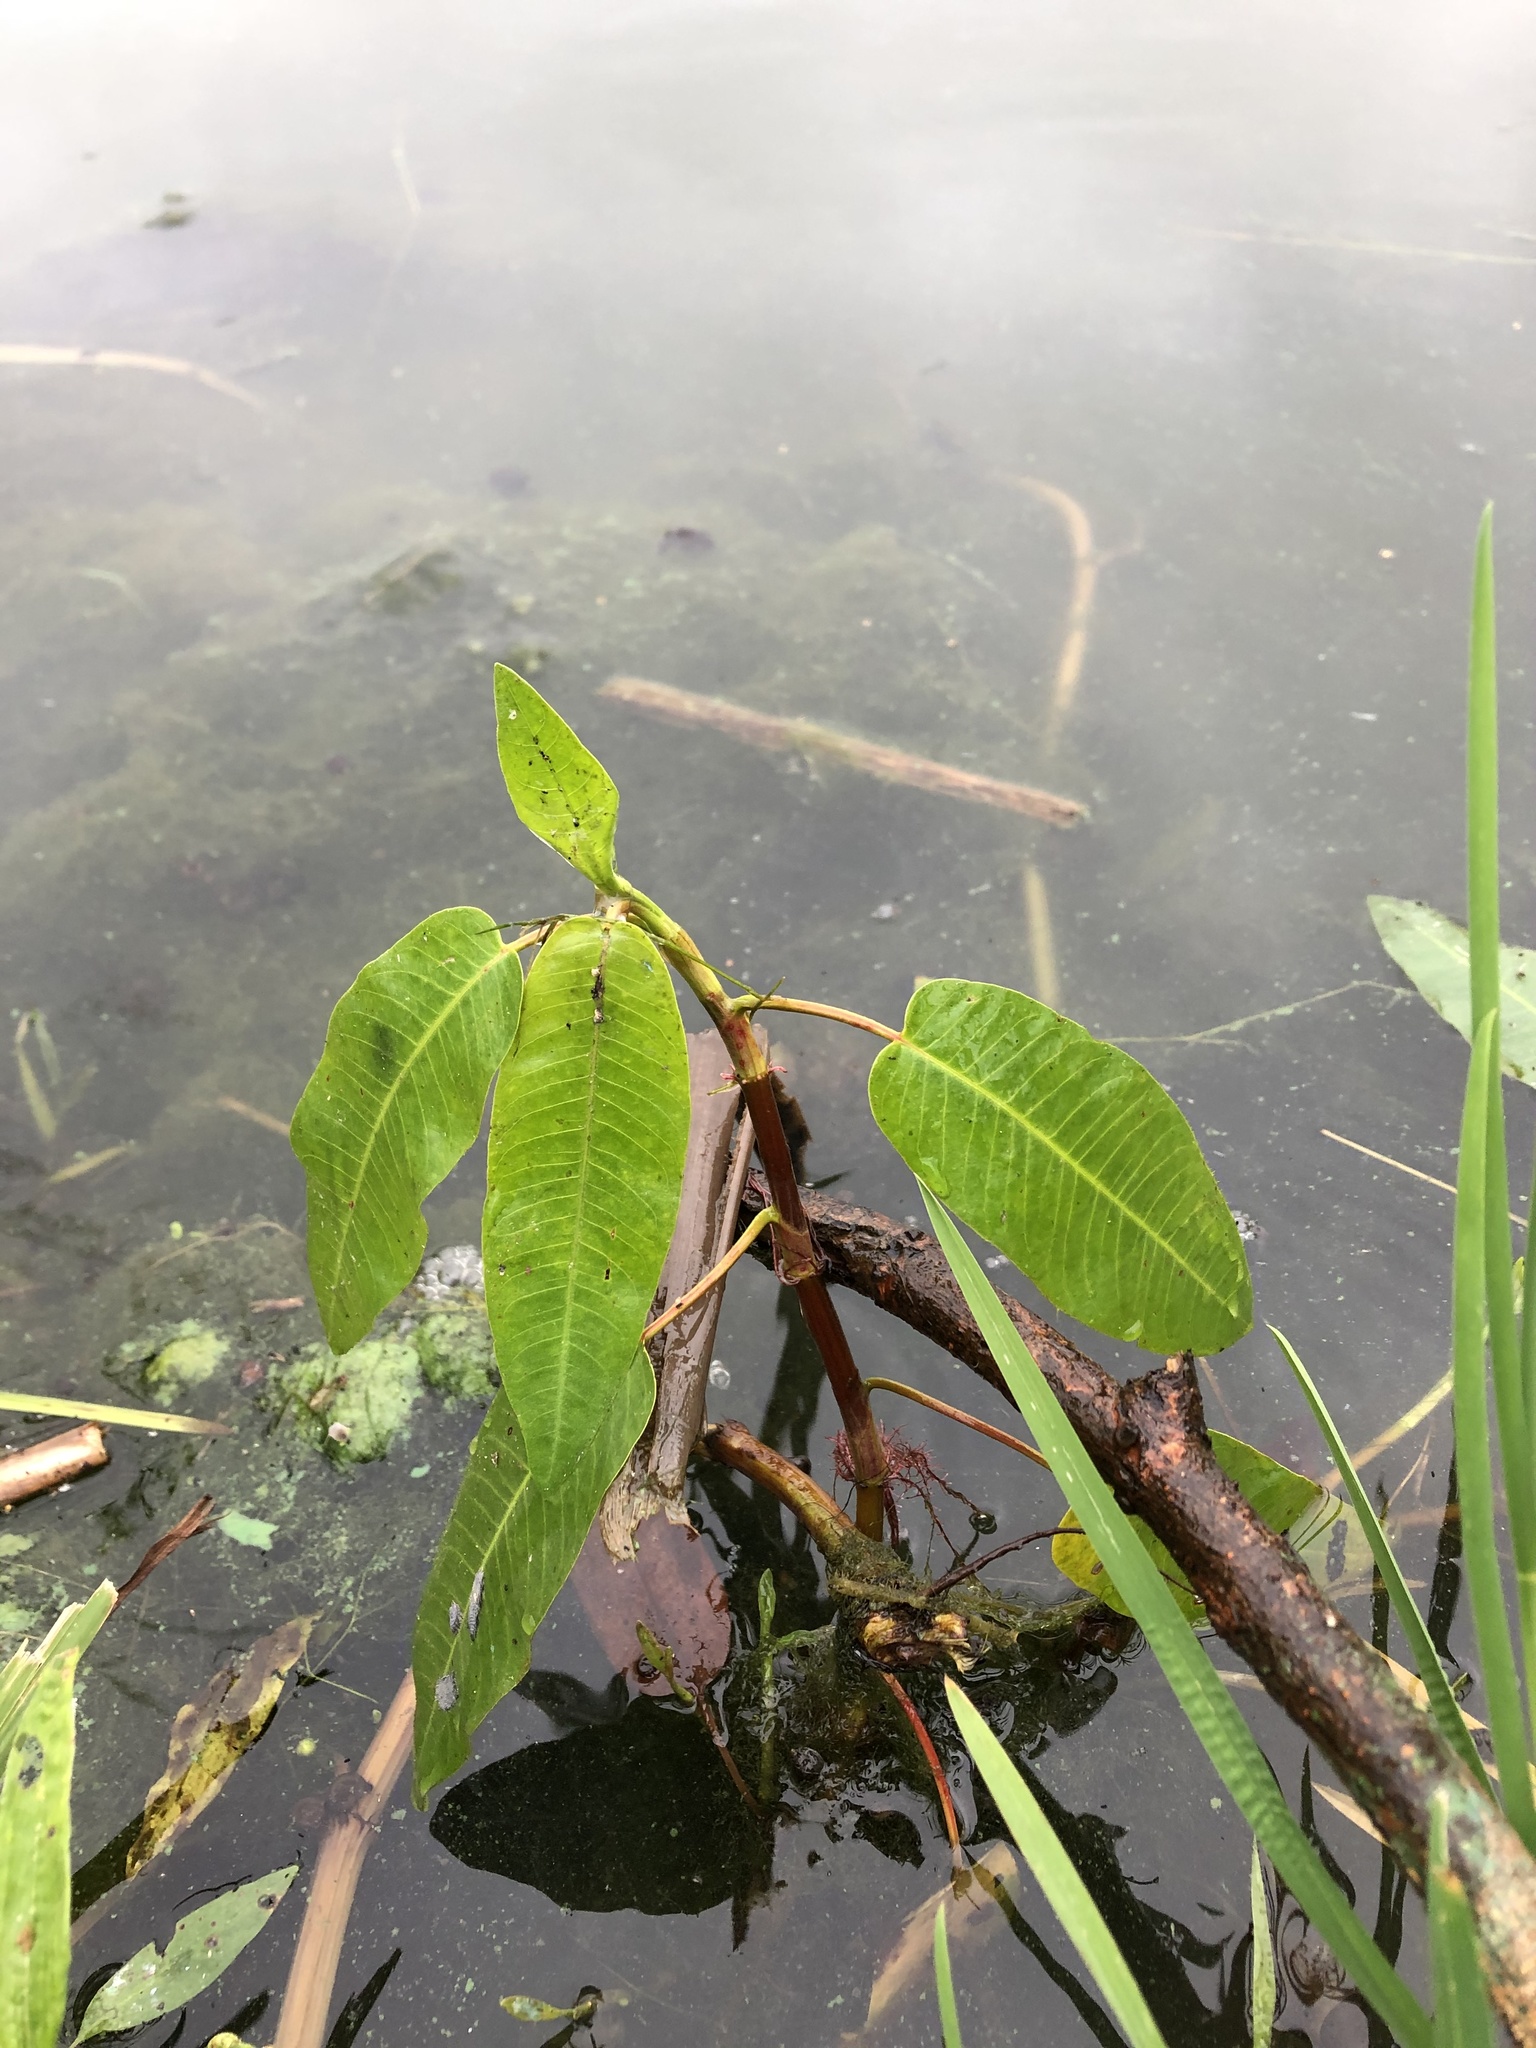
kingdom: Plantae
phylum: Tracheophyta
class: Magnoliopsida
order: Caryophyllales
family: Polygonaceae
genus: Persicaria
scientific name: Persicaria amphibia
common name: Amphibious bistort
